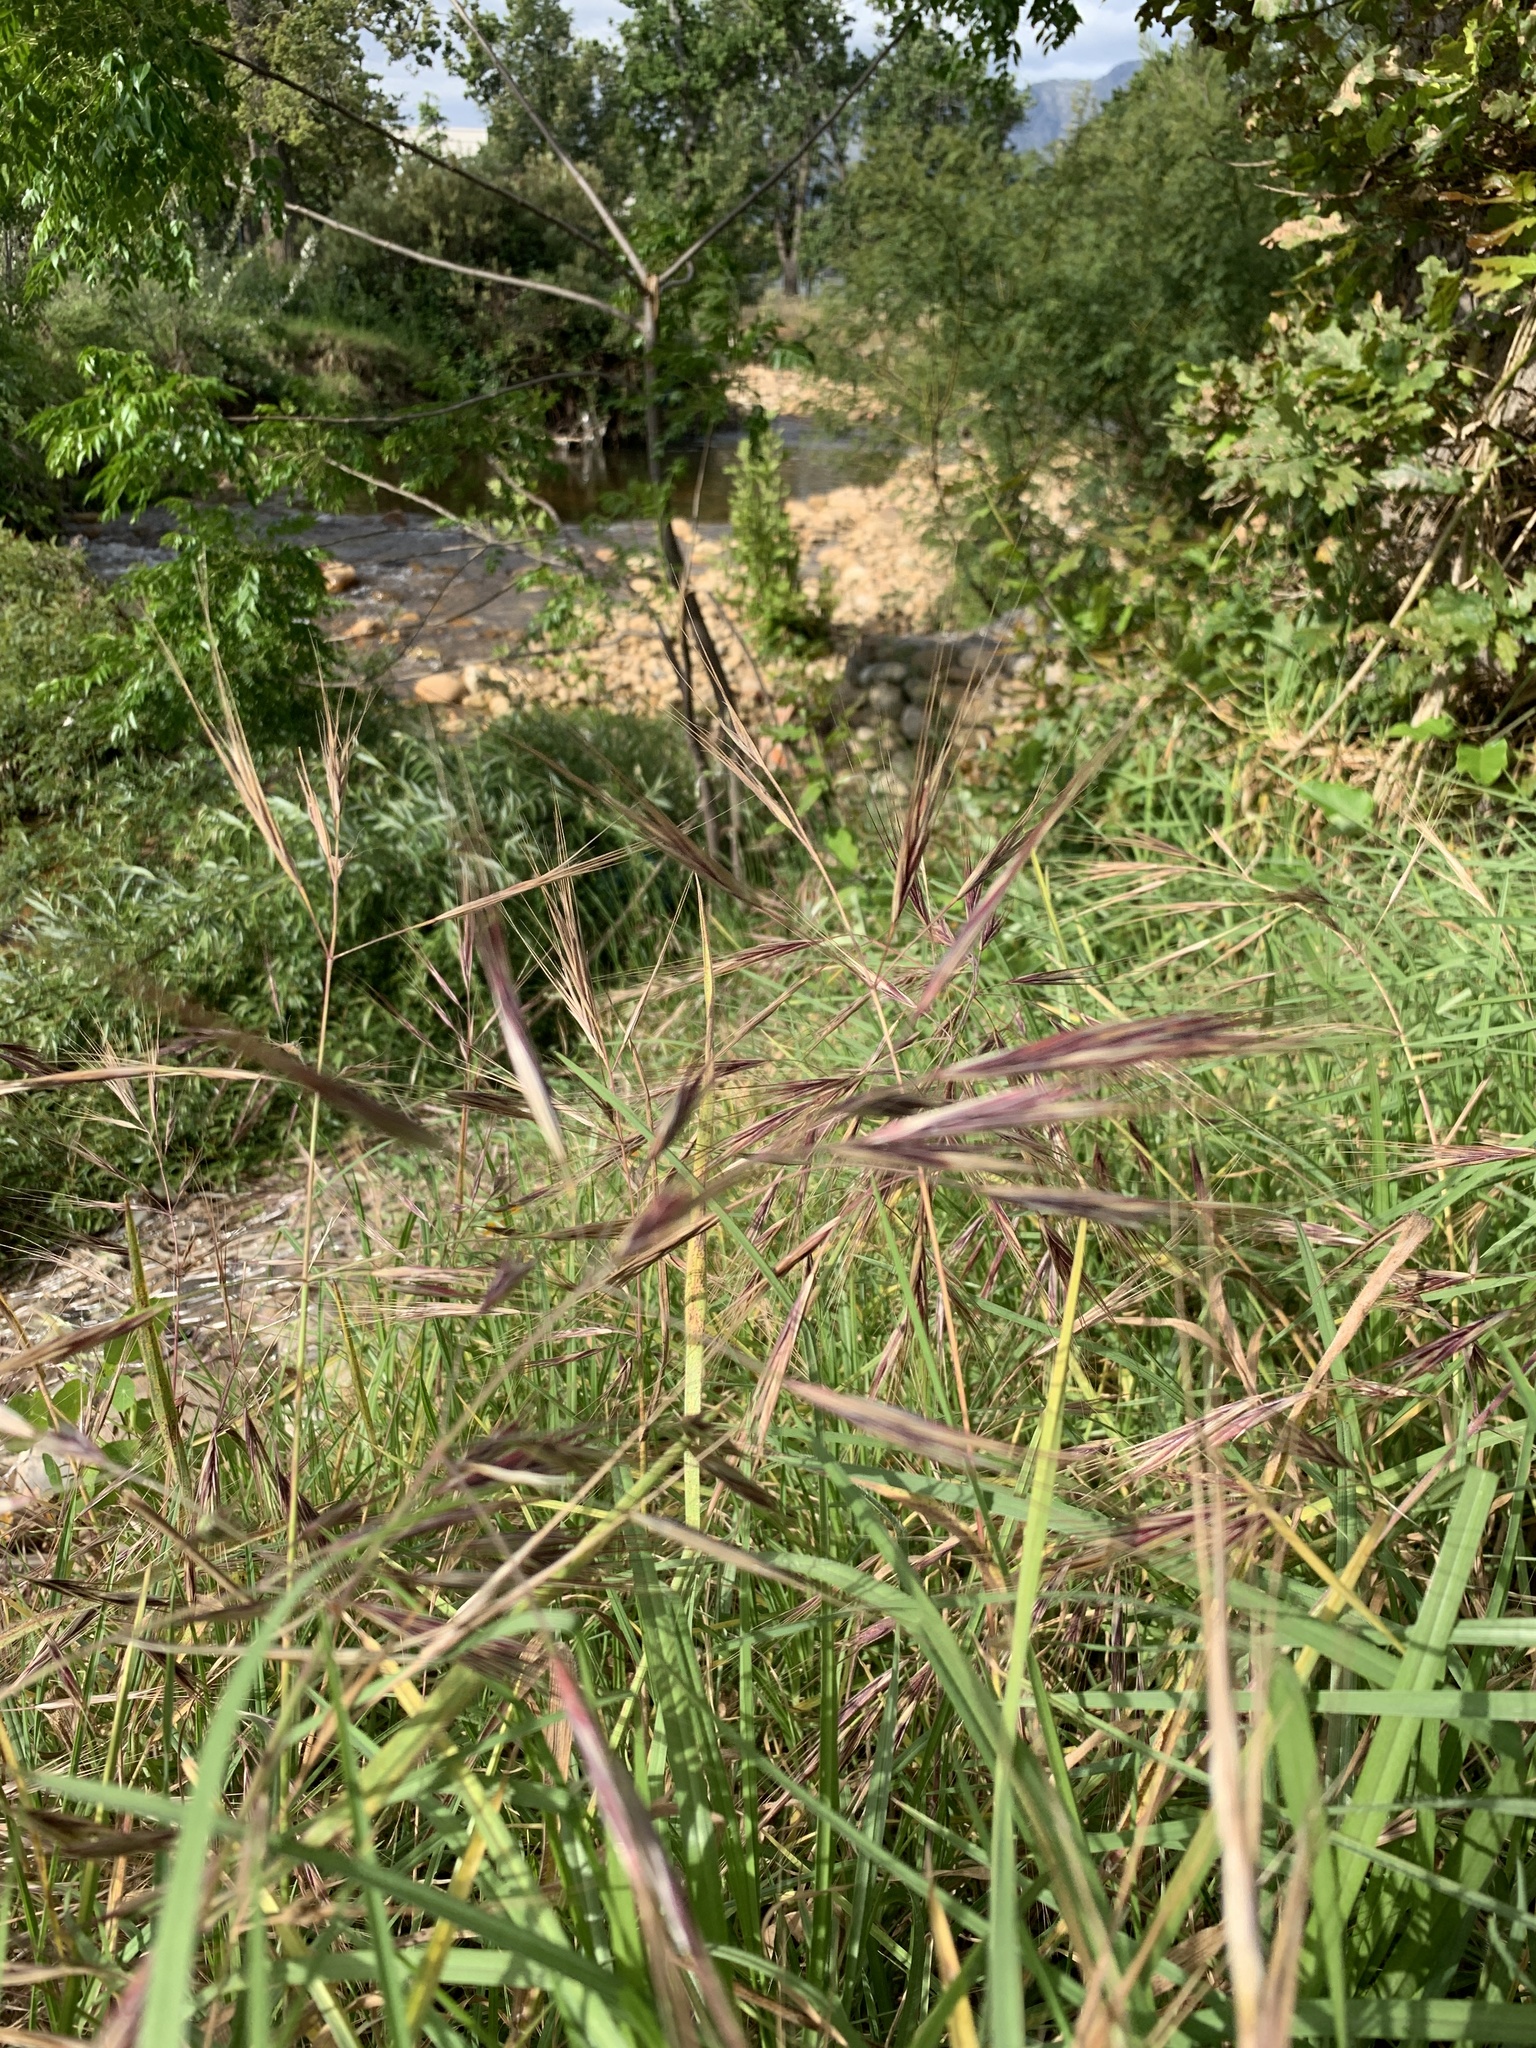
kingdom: Plantae
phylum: Tracheophyta
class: Liliopsida
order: Poales
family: Poaceae
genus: Bromus
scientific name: Bromus diandrus
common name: Ripgut brome
